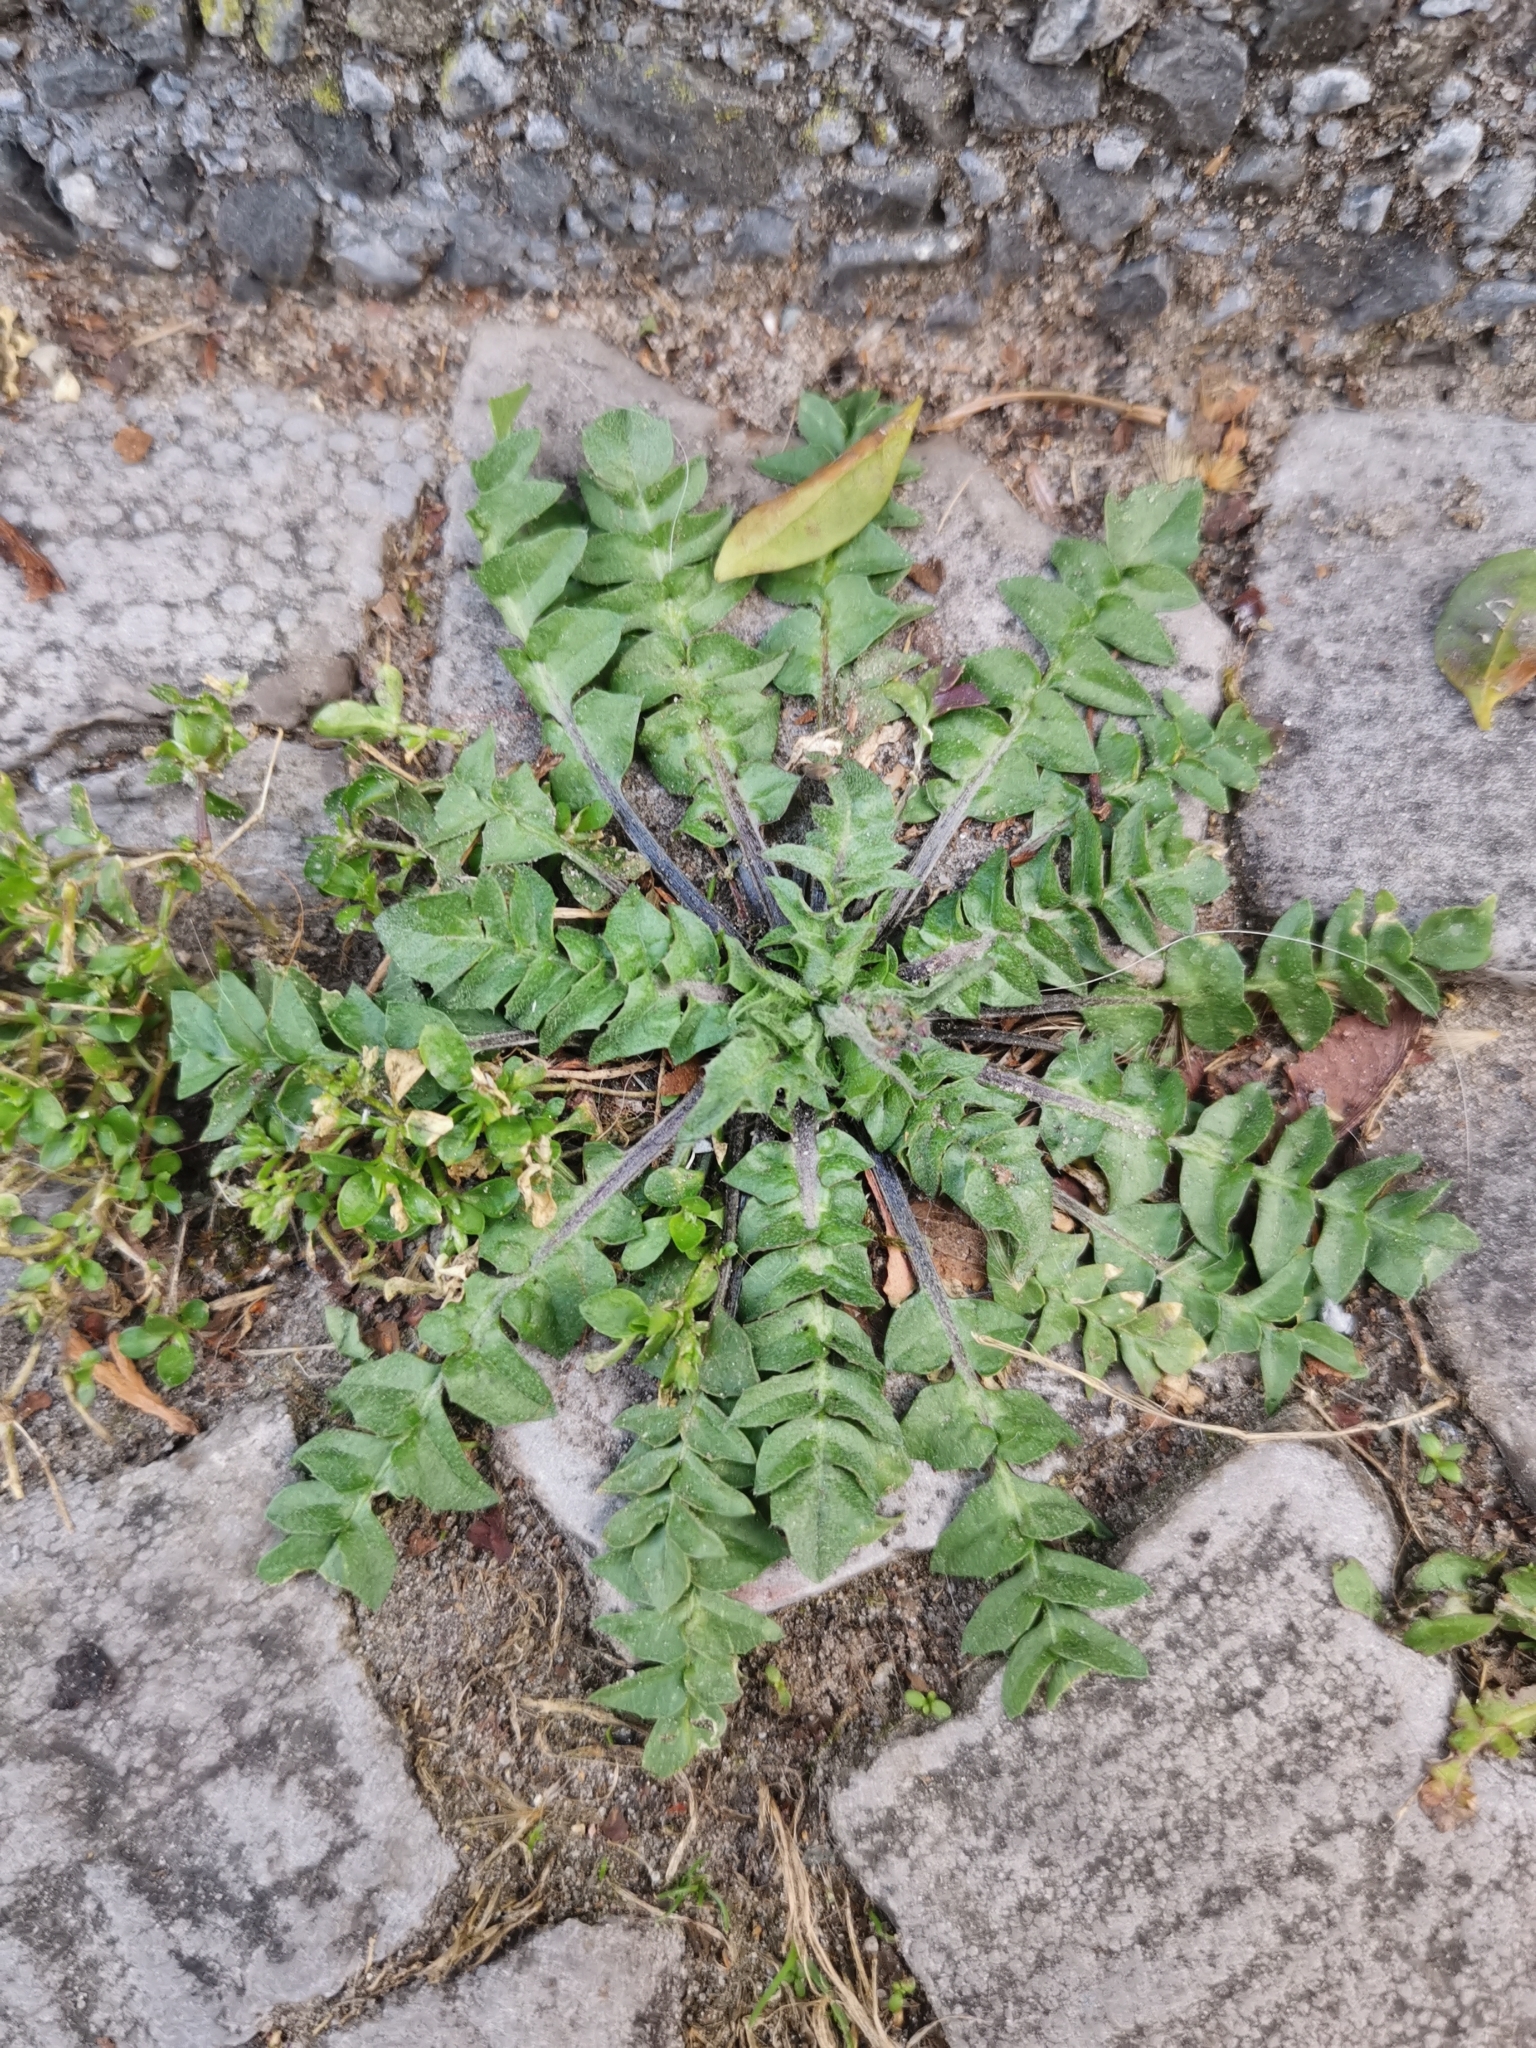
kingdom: Plantae
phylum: Tracheophyta
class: Magnoliopsida
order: Brassicales
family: Brassicaceae
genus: Capsella
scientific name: Capsella bursa-pastoris
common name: Shepherd's purse
